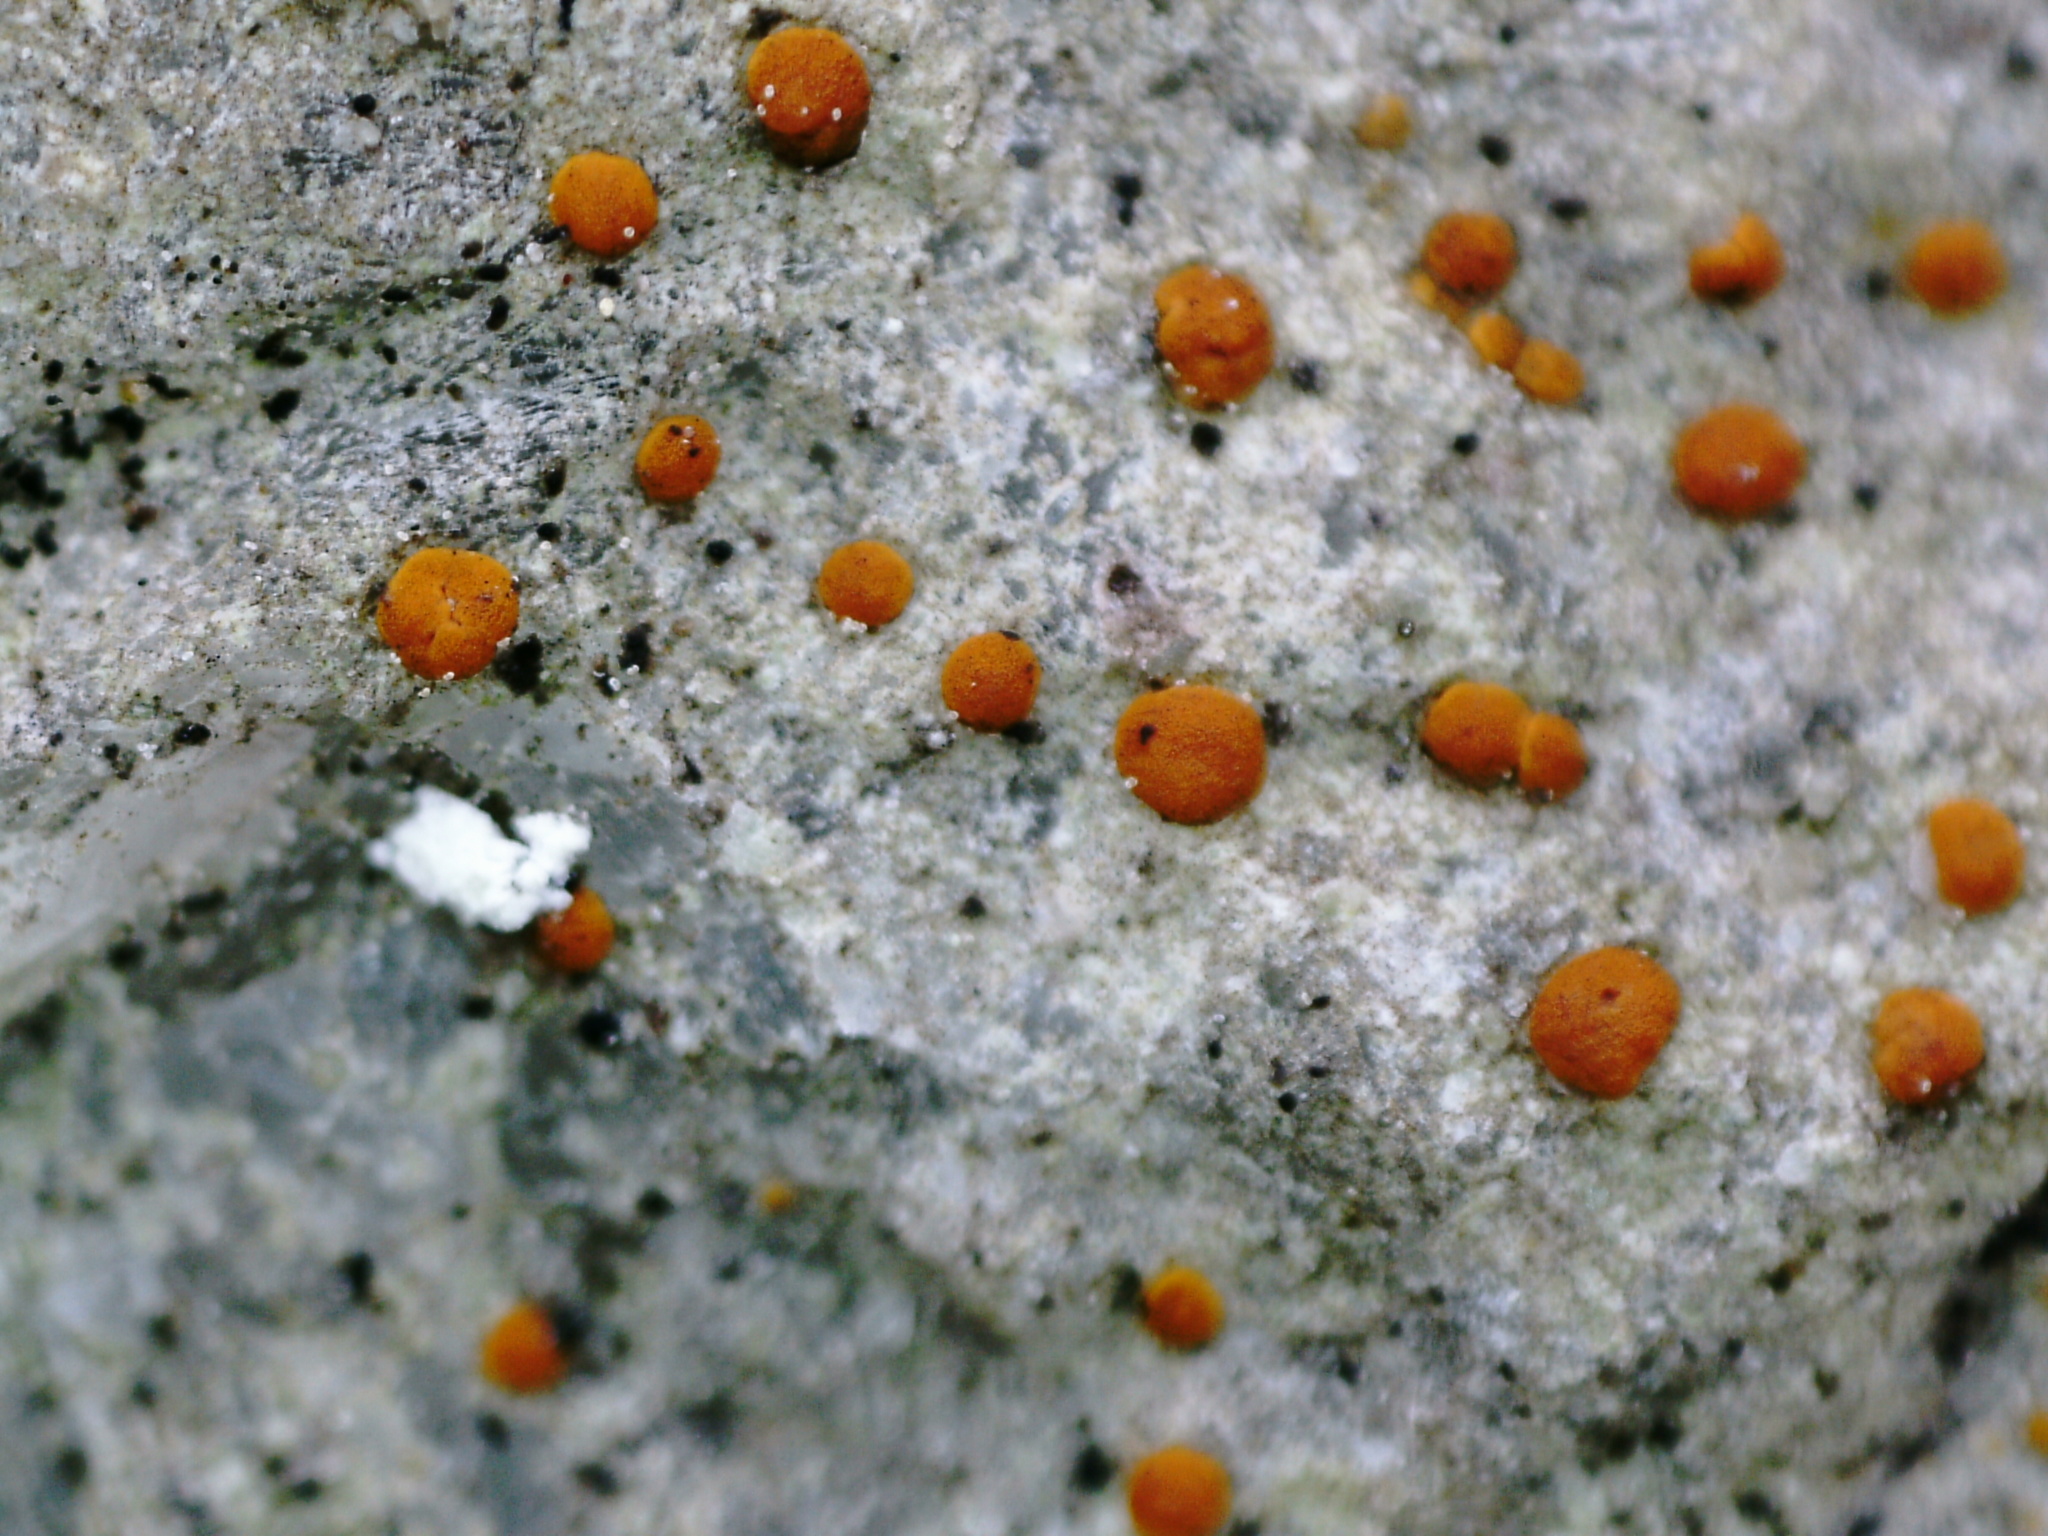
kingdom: Fungi
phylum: Ascomycota
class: Lecanoromycetes
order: Lecanorales
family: Psoraceae
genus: Protoblastenia
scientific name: Protoblastenia rupestris
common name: Chewing gum lichen
